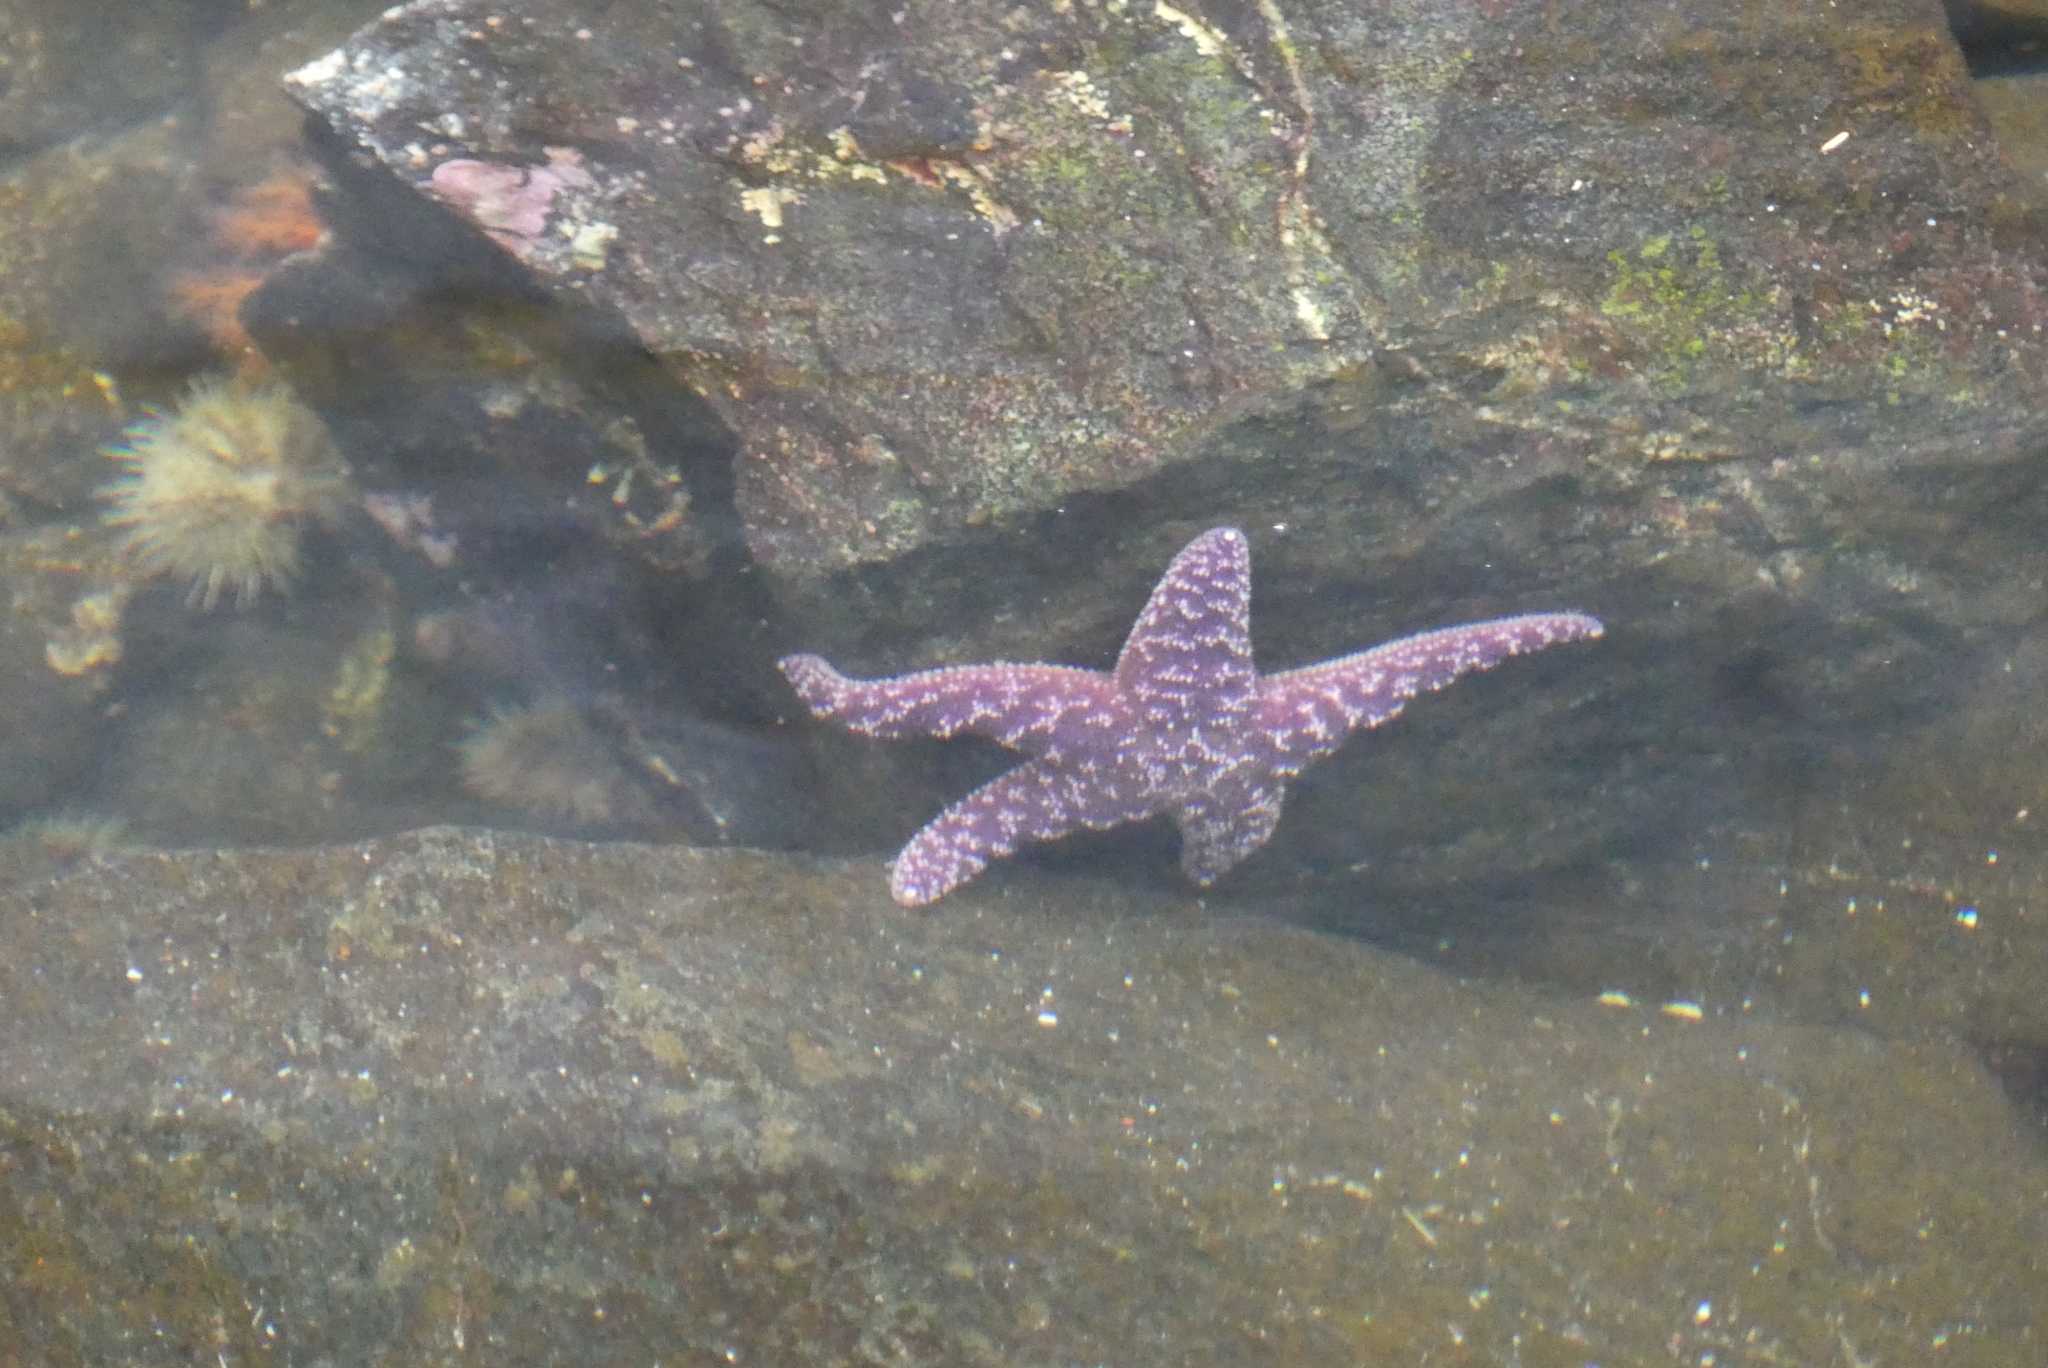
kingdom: Animalia
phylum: Echinodermata
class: Asteroidea
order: Forcipulatida
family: Asteriidae
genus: Pisaster
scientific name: Pisaster ochraceus
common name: Ochre stars
